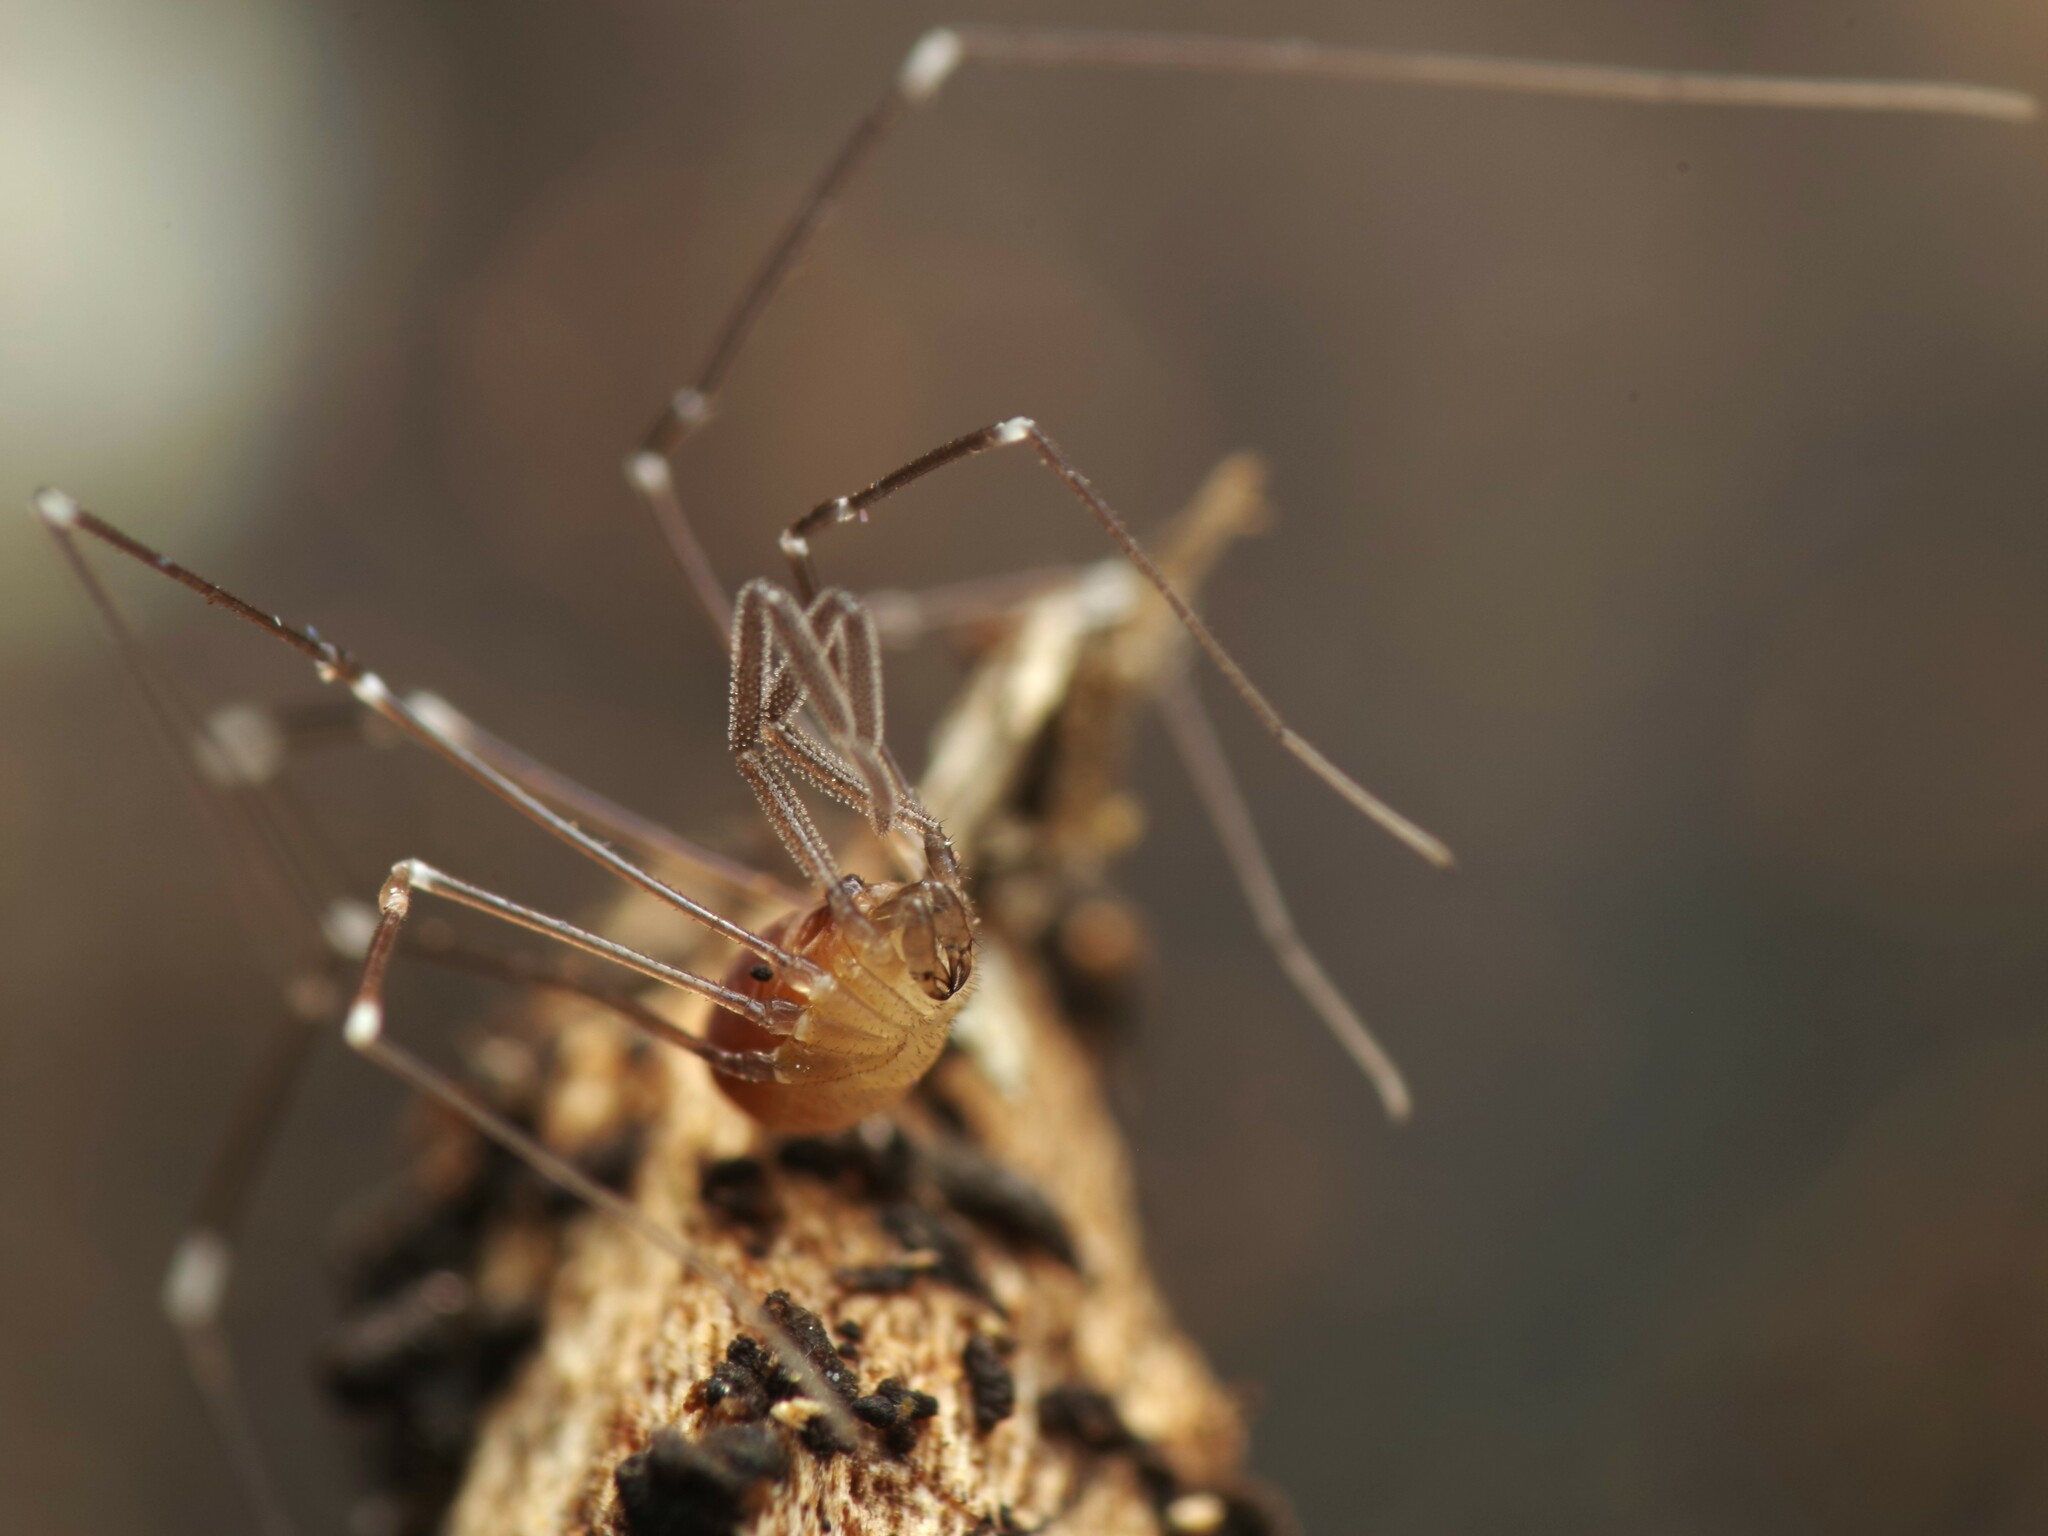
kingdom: Animalia
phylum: Arthropoda
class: Arachnida
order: Opiliones
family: Nemastomatidae
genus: Mitostoma
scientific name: Mitostoma chrysomelas
